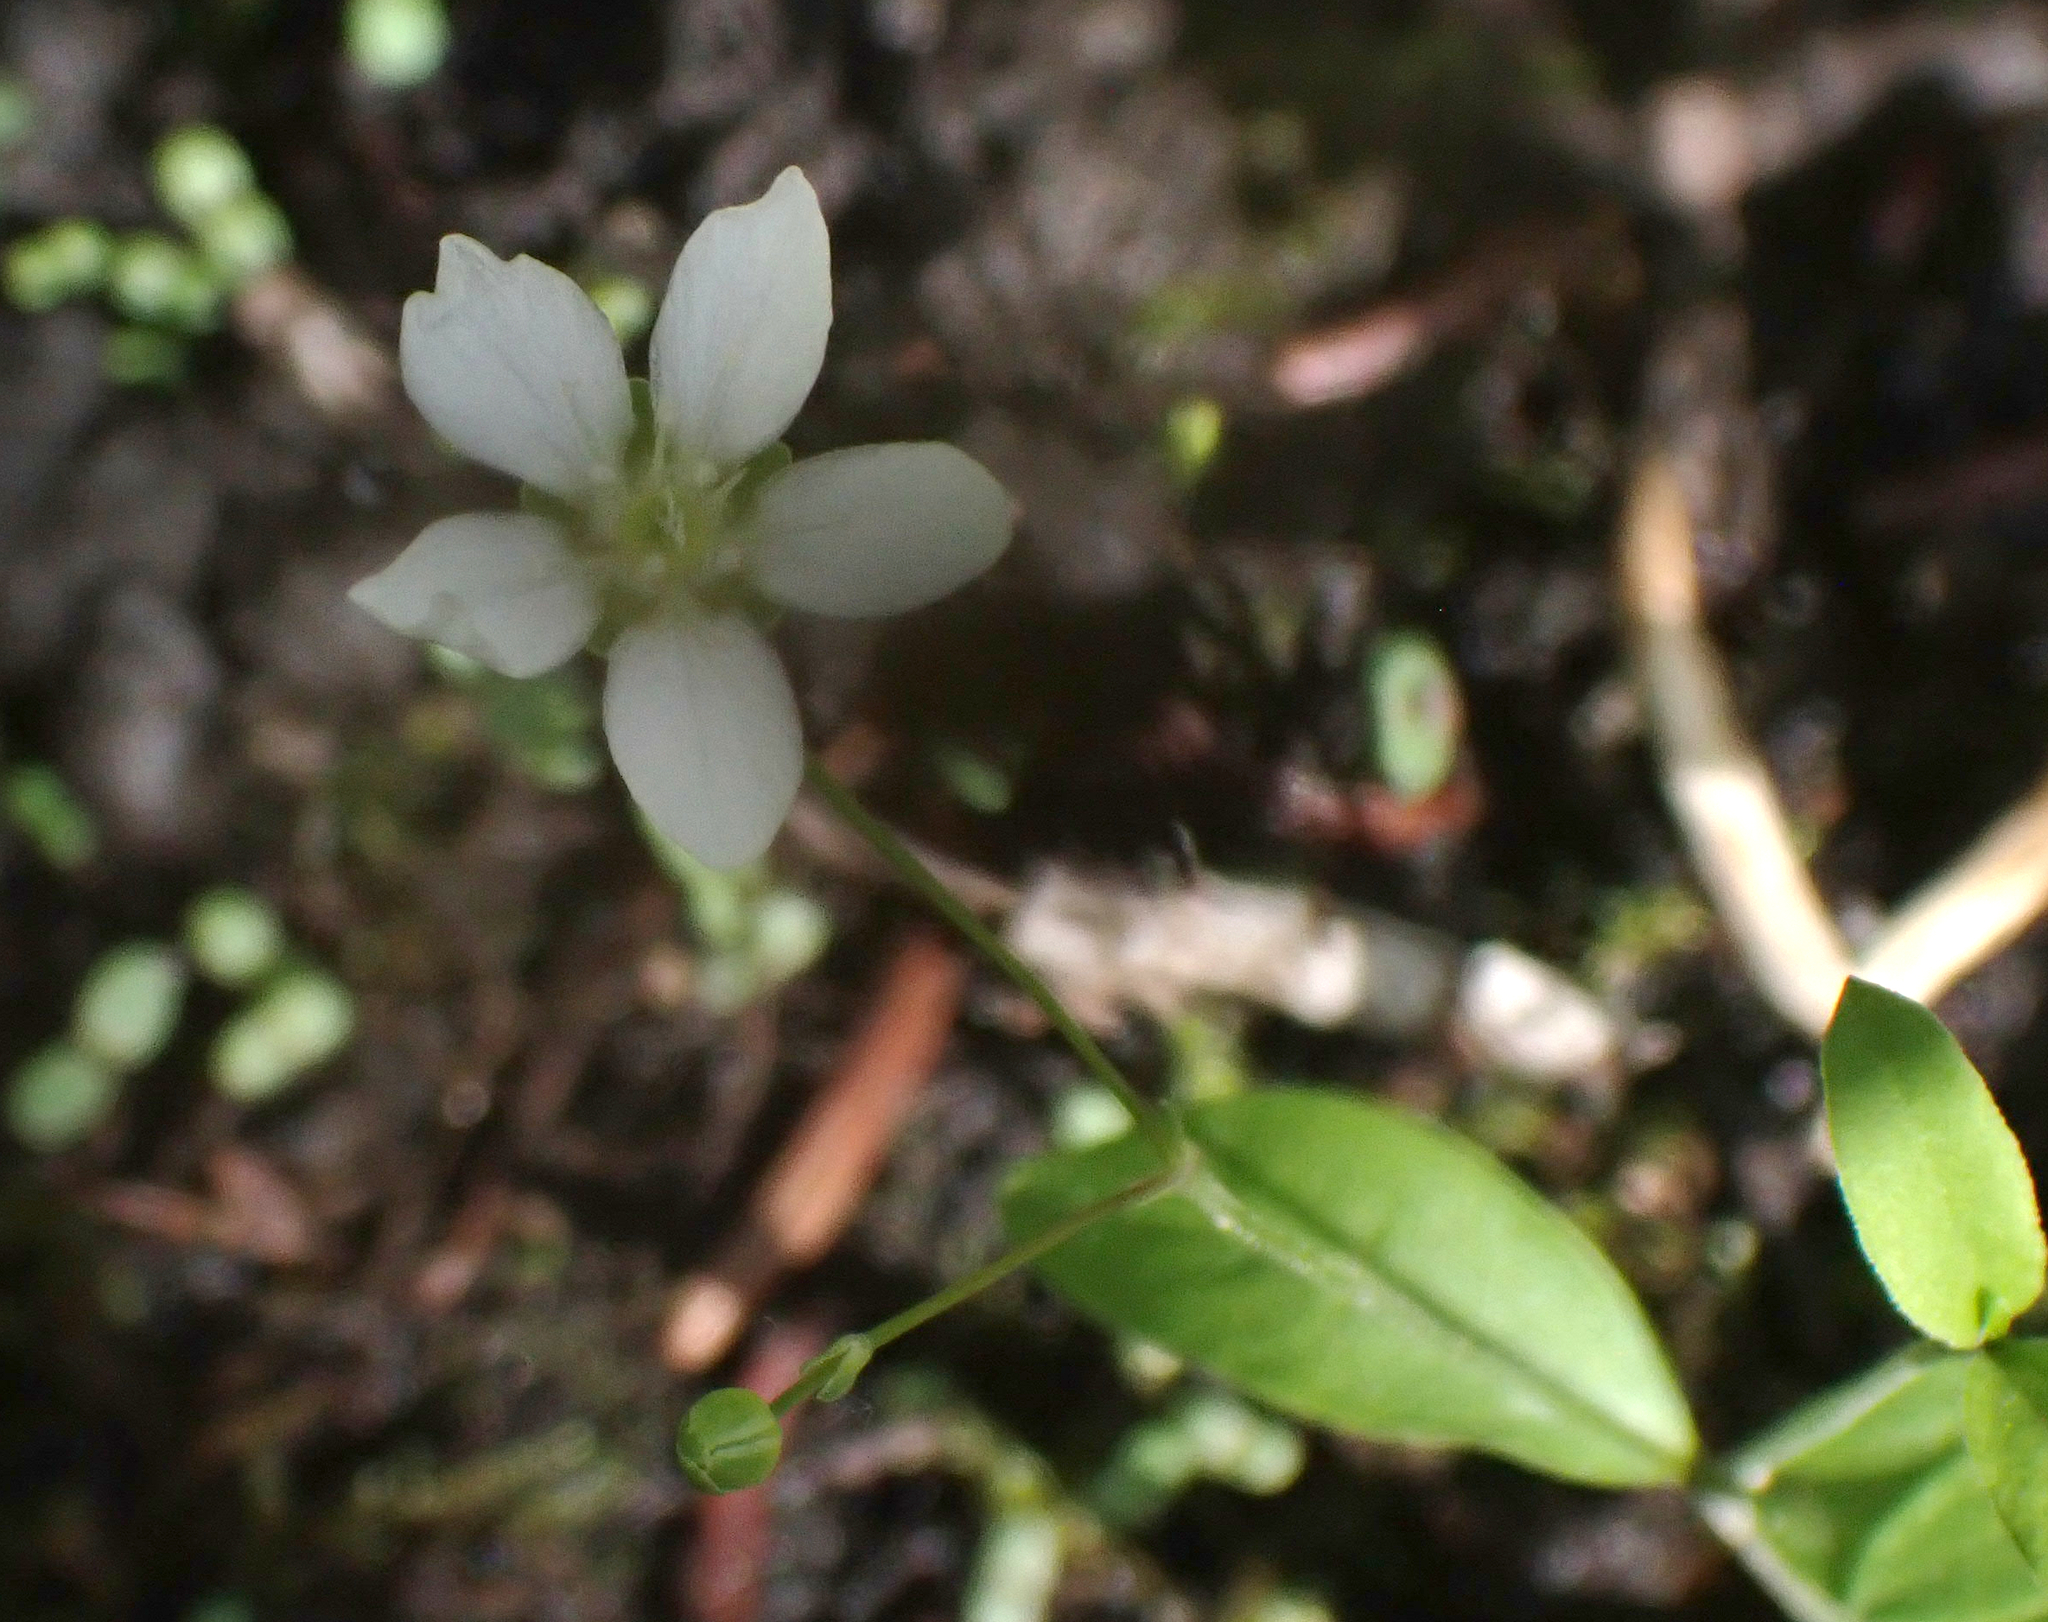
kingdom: Plantae
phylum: Tracheophyta
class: Magnoliopsida
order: Caryophyllales
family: Caryophyllaceae
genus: Moehringia
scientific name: Moehringia lateriflora
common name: Blunt-leaved sandwort
